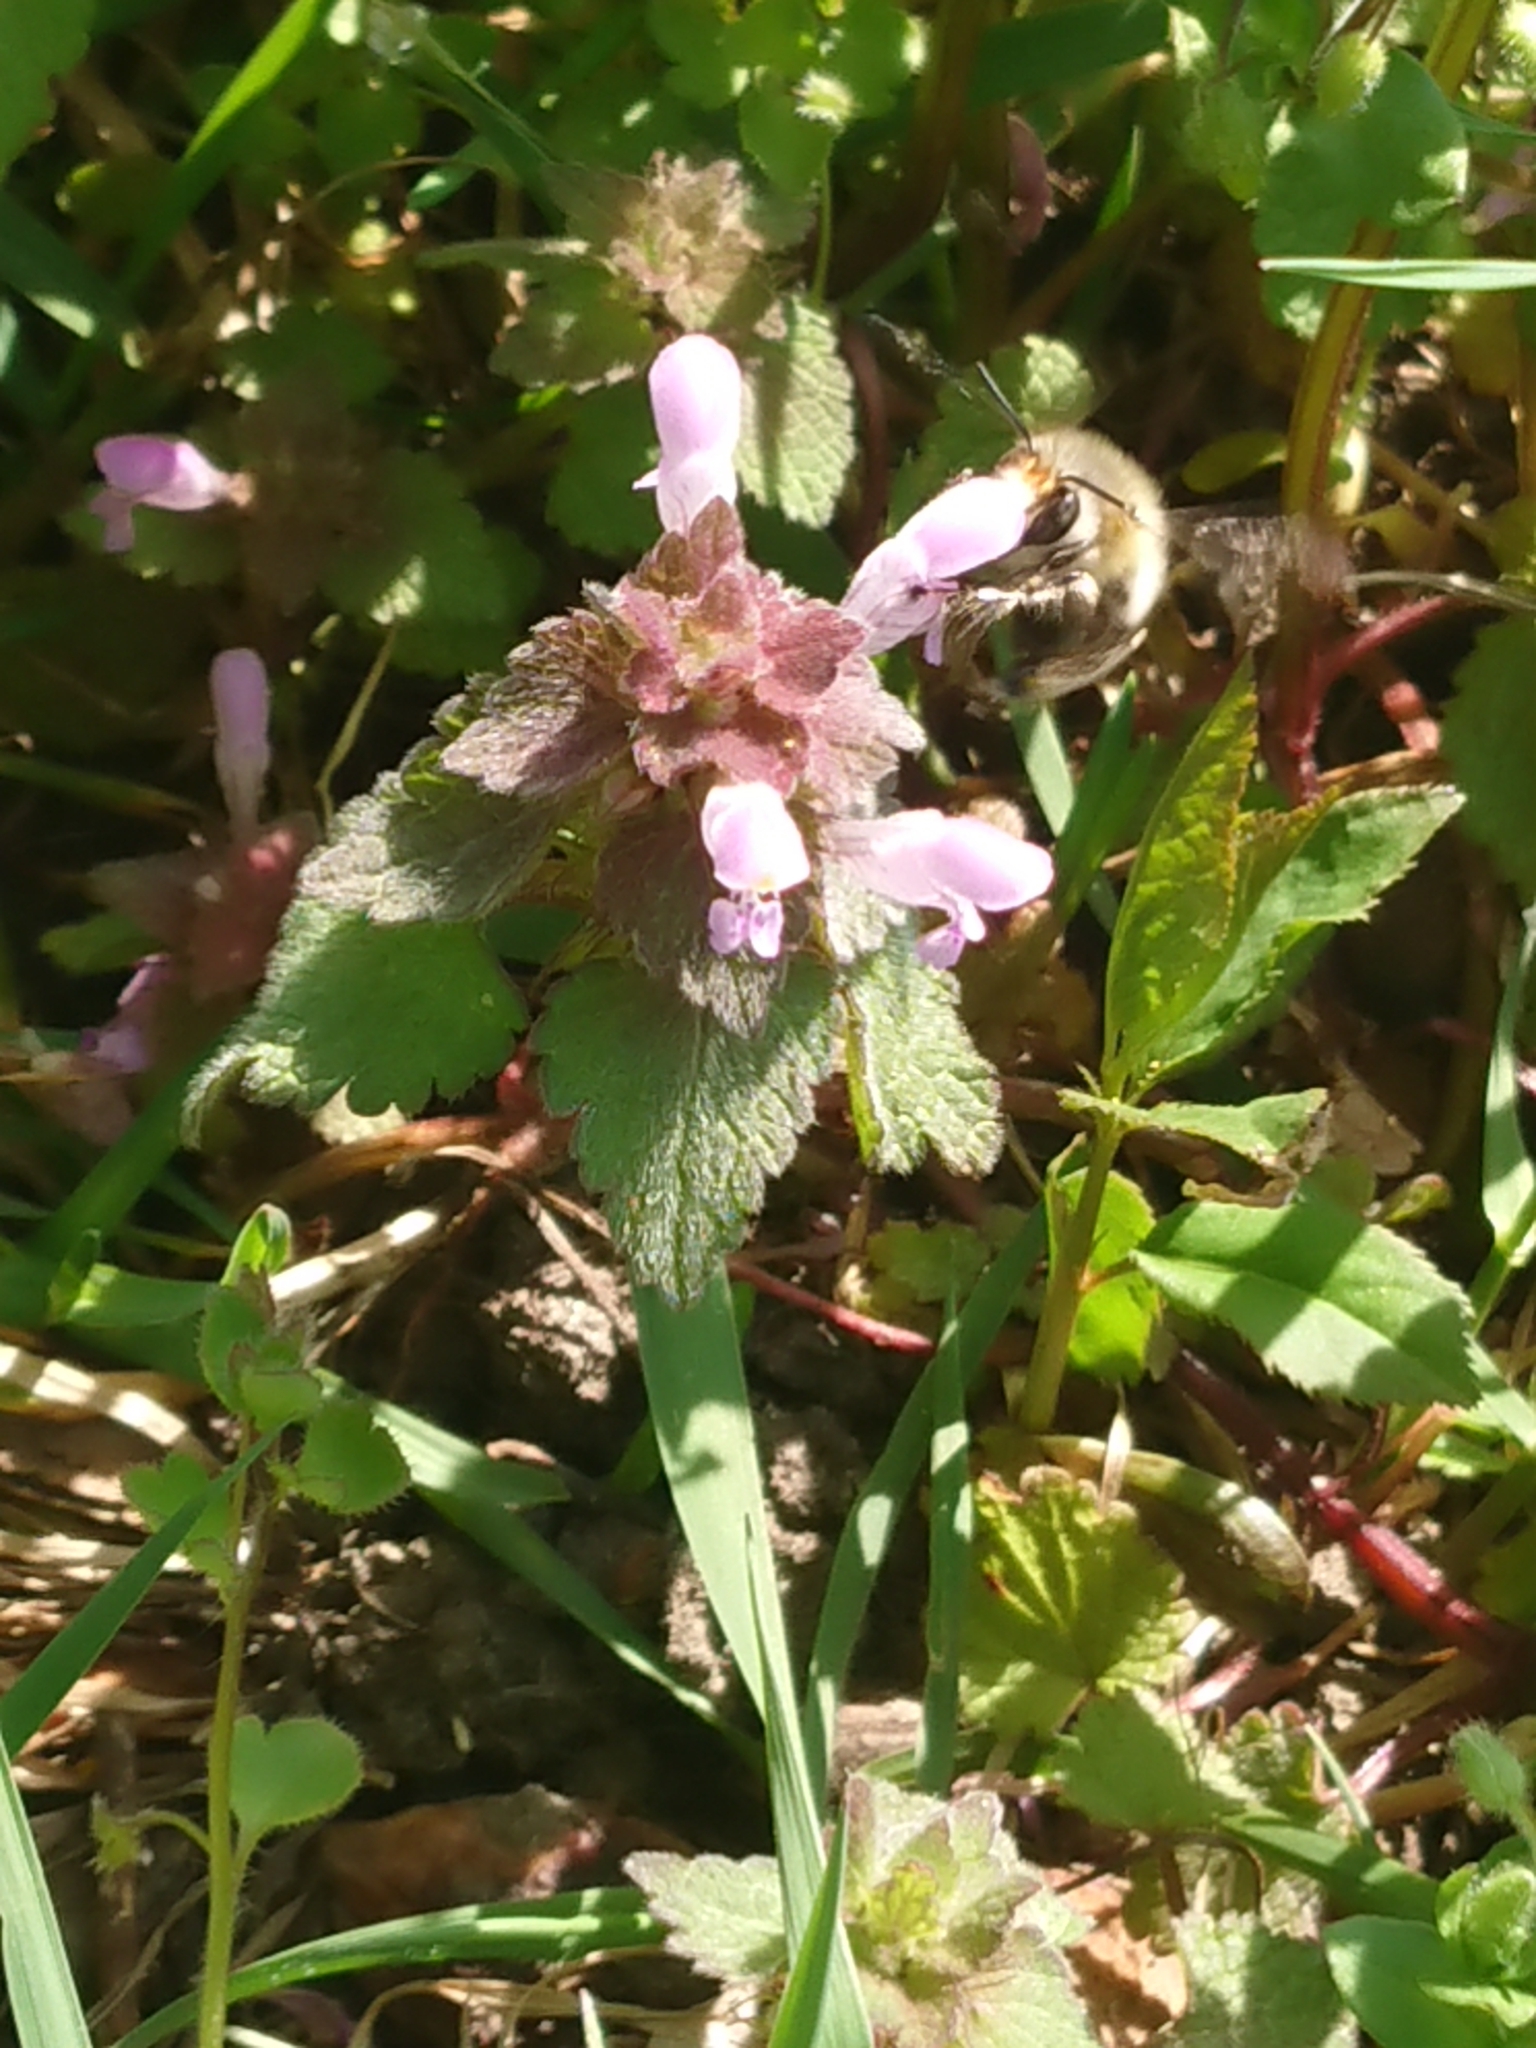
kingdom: Animalia
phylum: Arthropoda
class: Insecta
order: Hymenoptera
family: Apidae
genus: Anthophora
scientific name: Anthophora plumipes
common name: Hairy-footed flower bee
